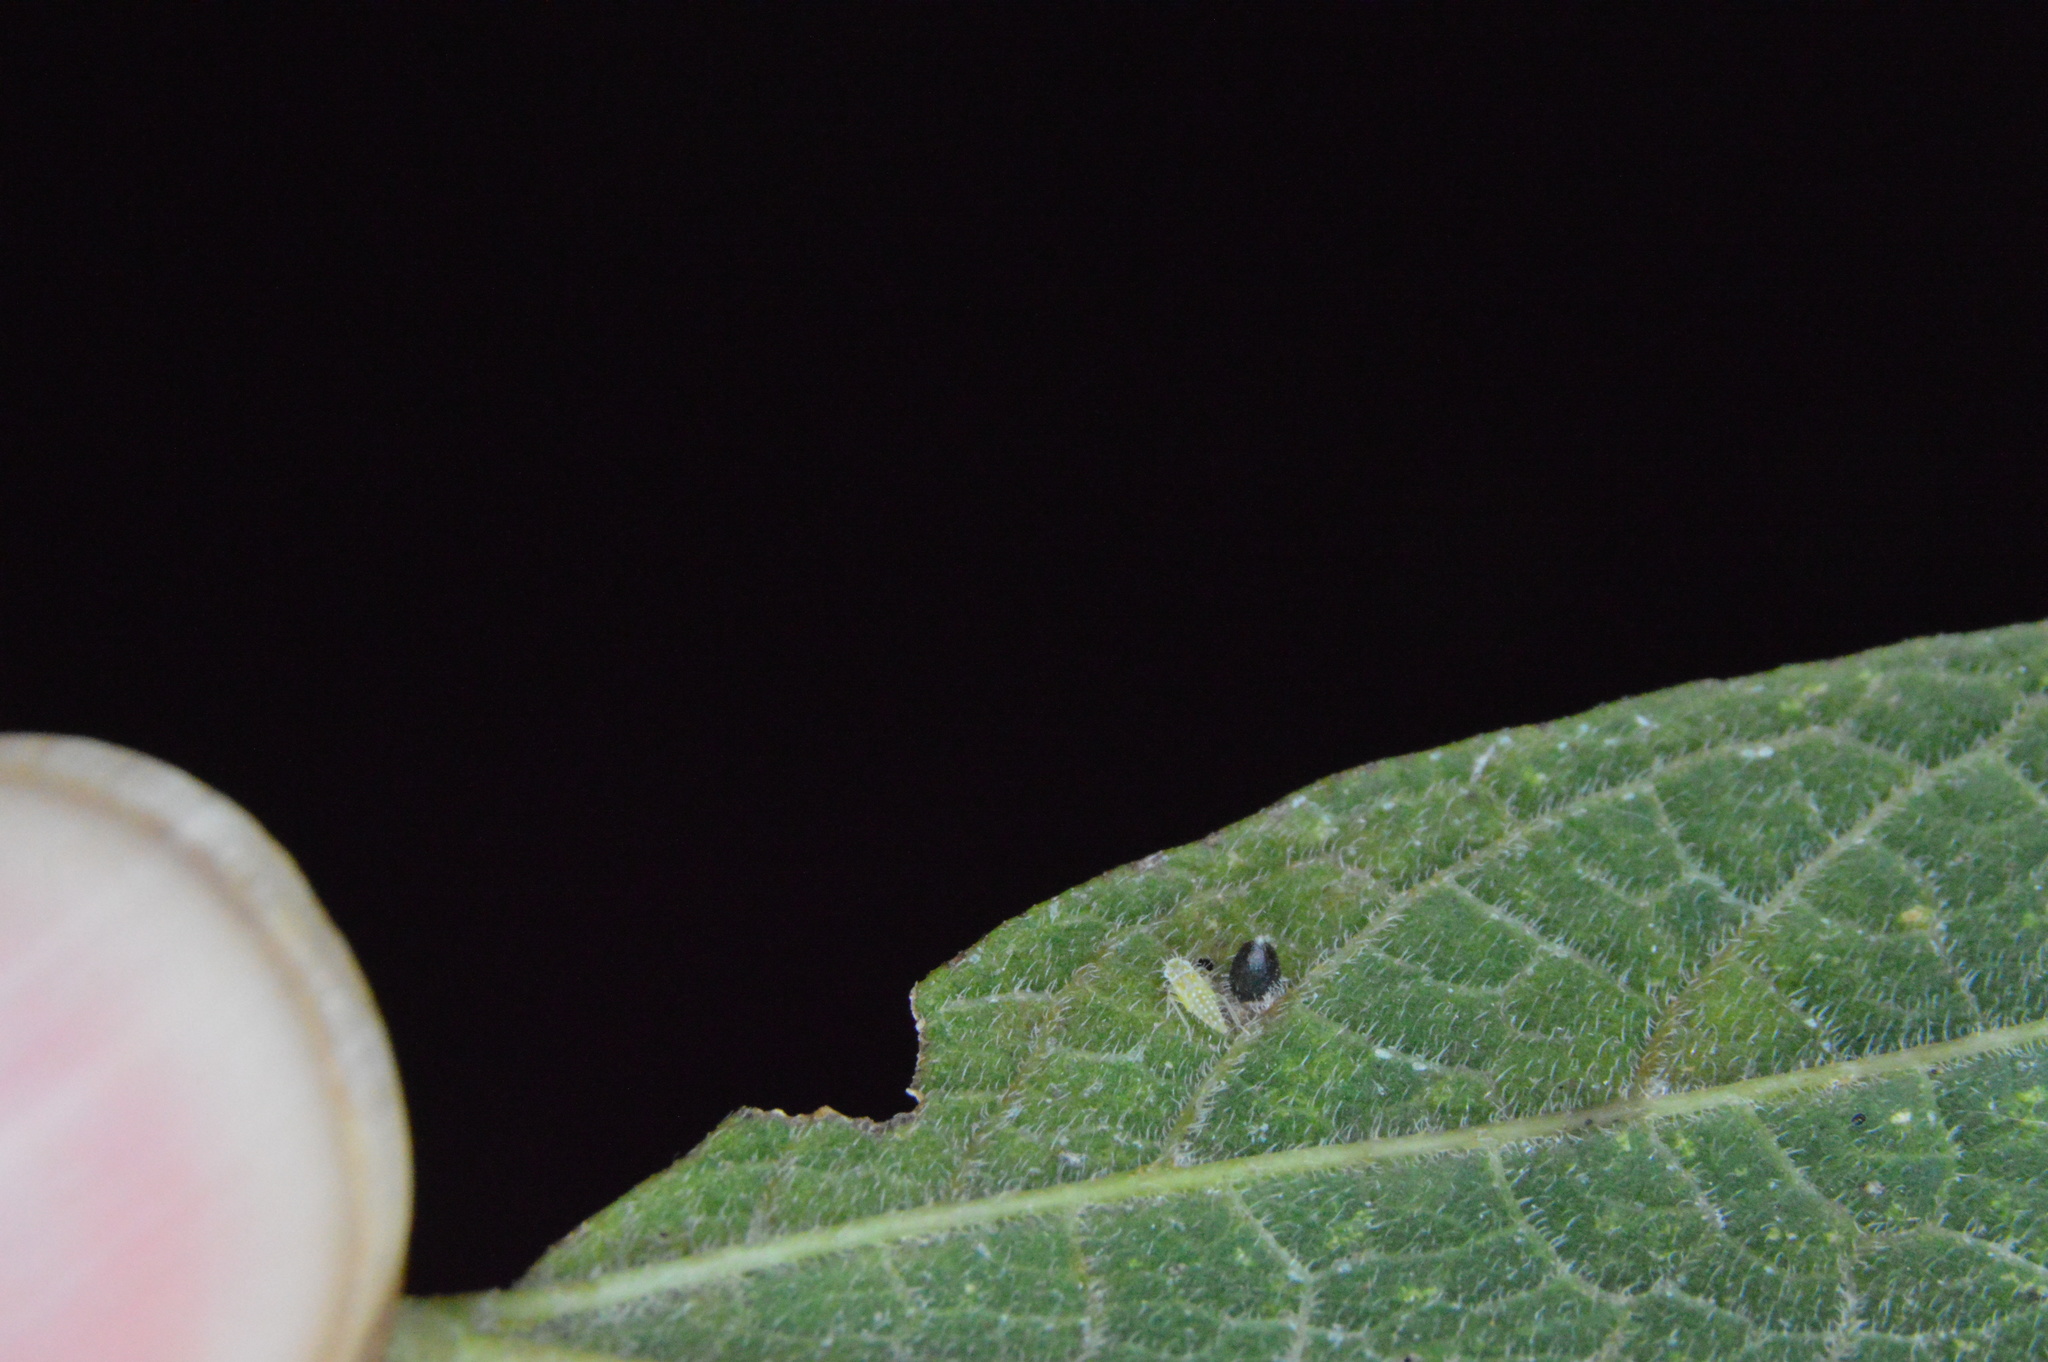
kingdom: Animalia
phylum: Arthropoda
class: Insecta
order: Diptera
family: Cecidomyiidae
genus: Celticecis
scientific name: Celticecis cupiformis
